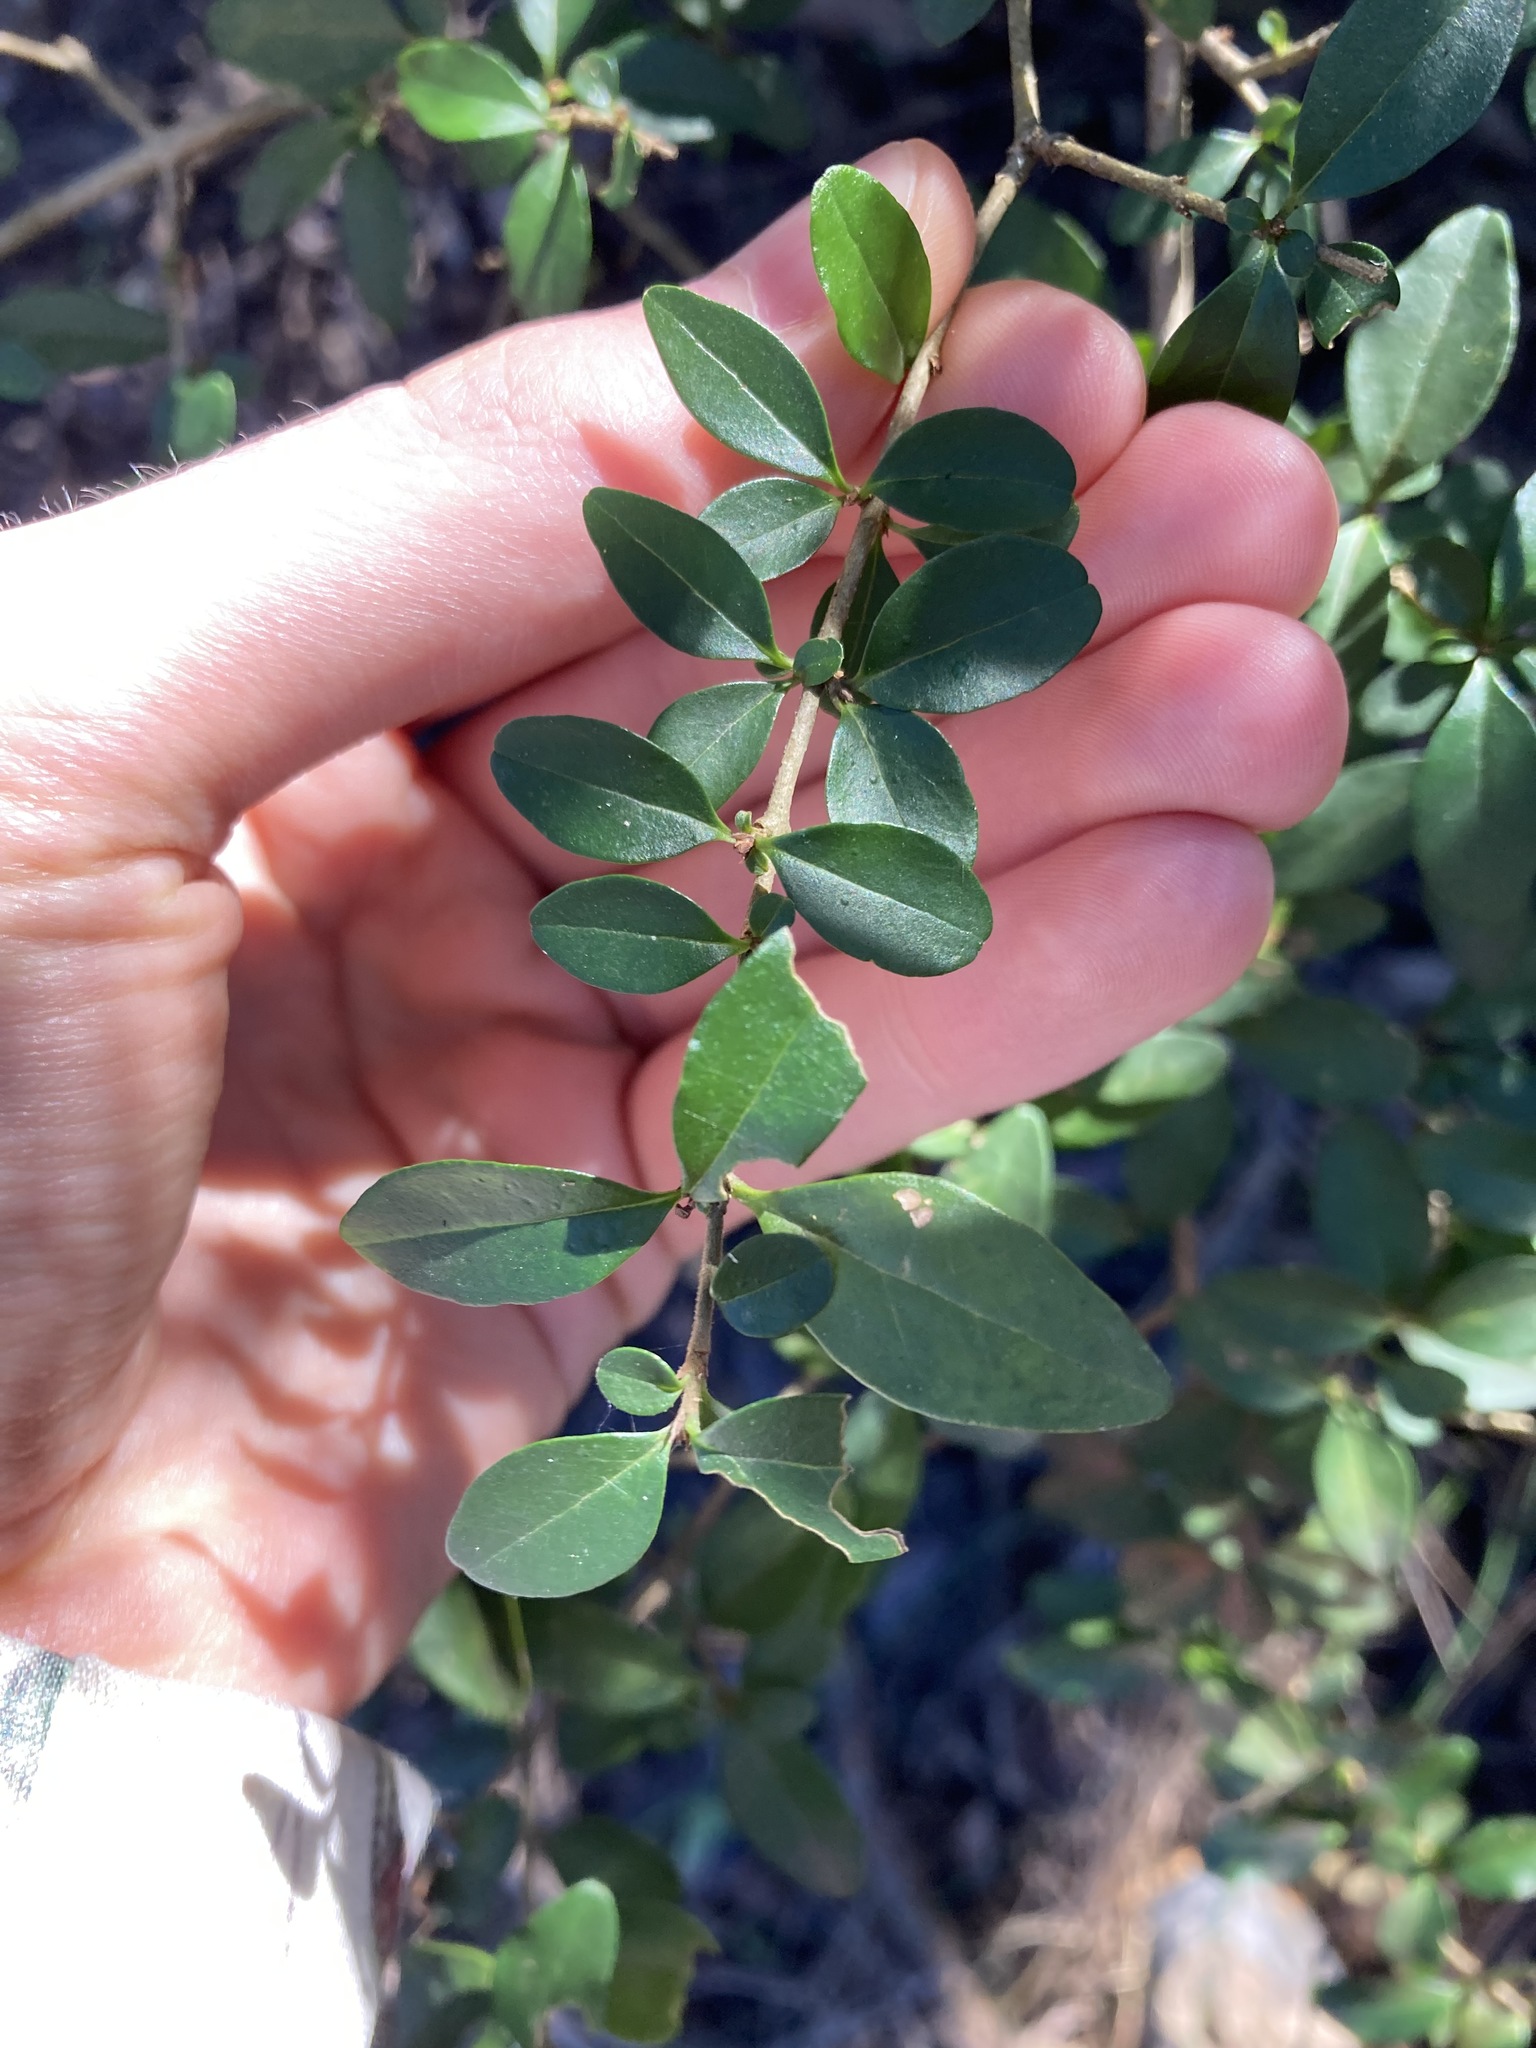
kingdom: Plantae
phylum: Tracheophyta
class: Magnoliopsida
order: Lamiales
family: Oleaceae
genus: Ligustrum
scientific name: Ligustrum sinense
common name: Chinese privet
